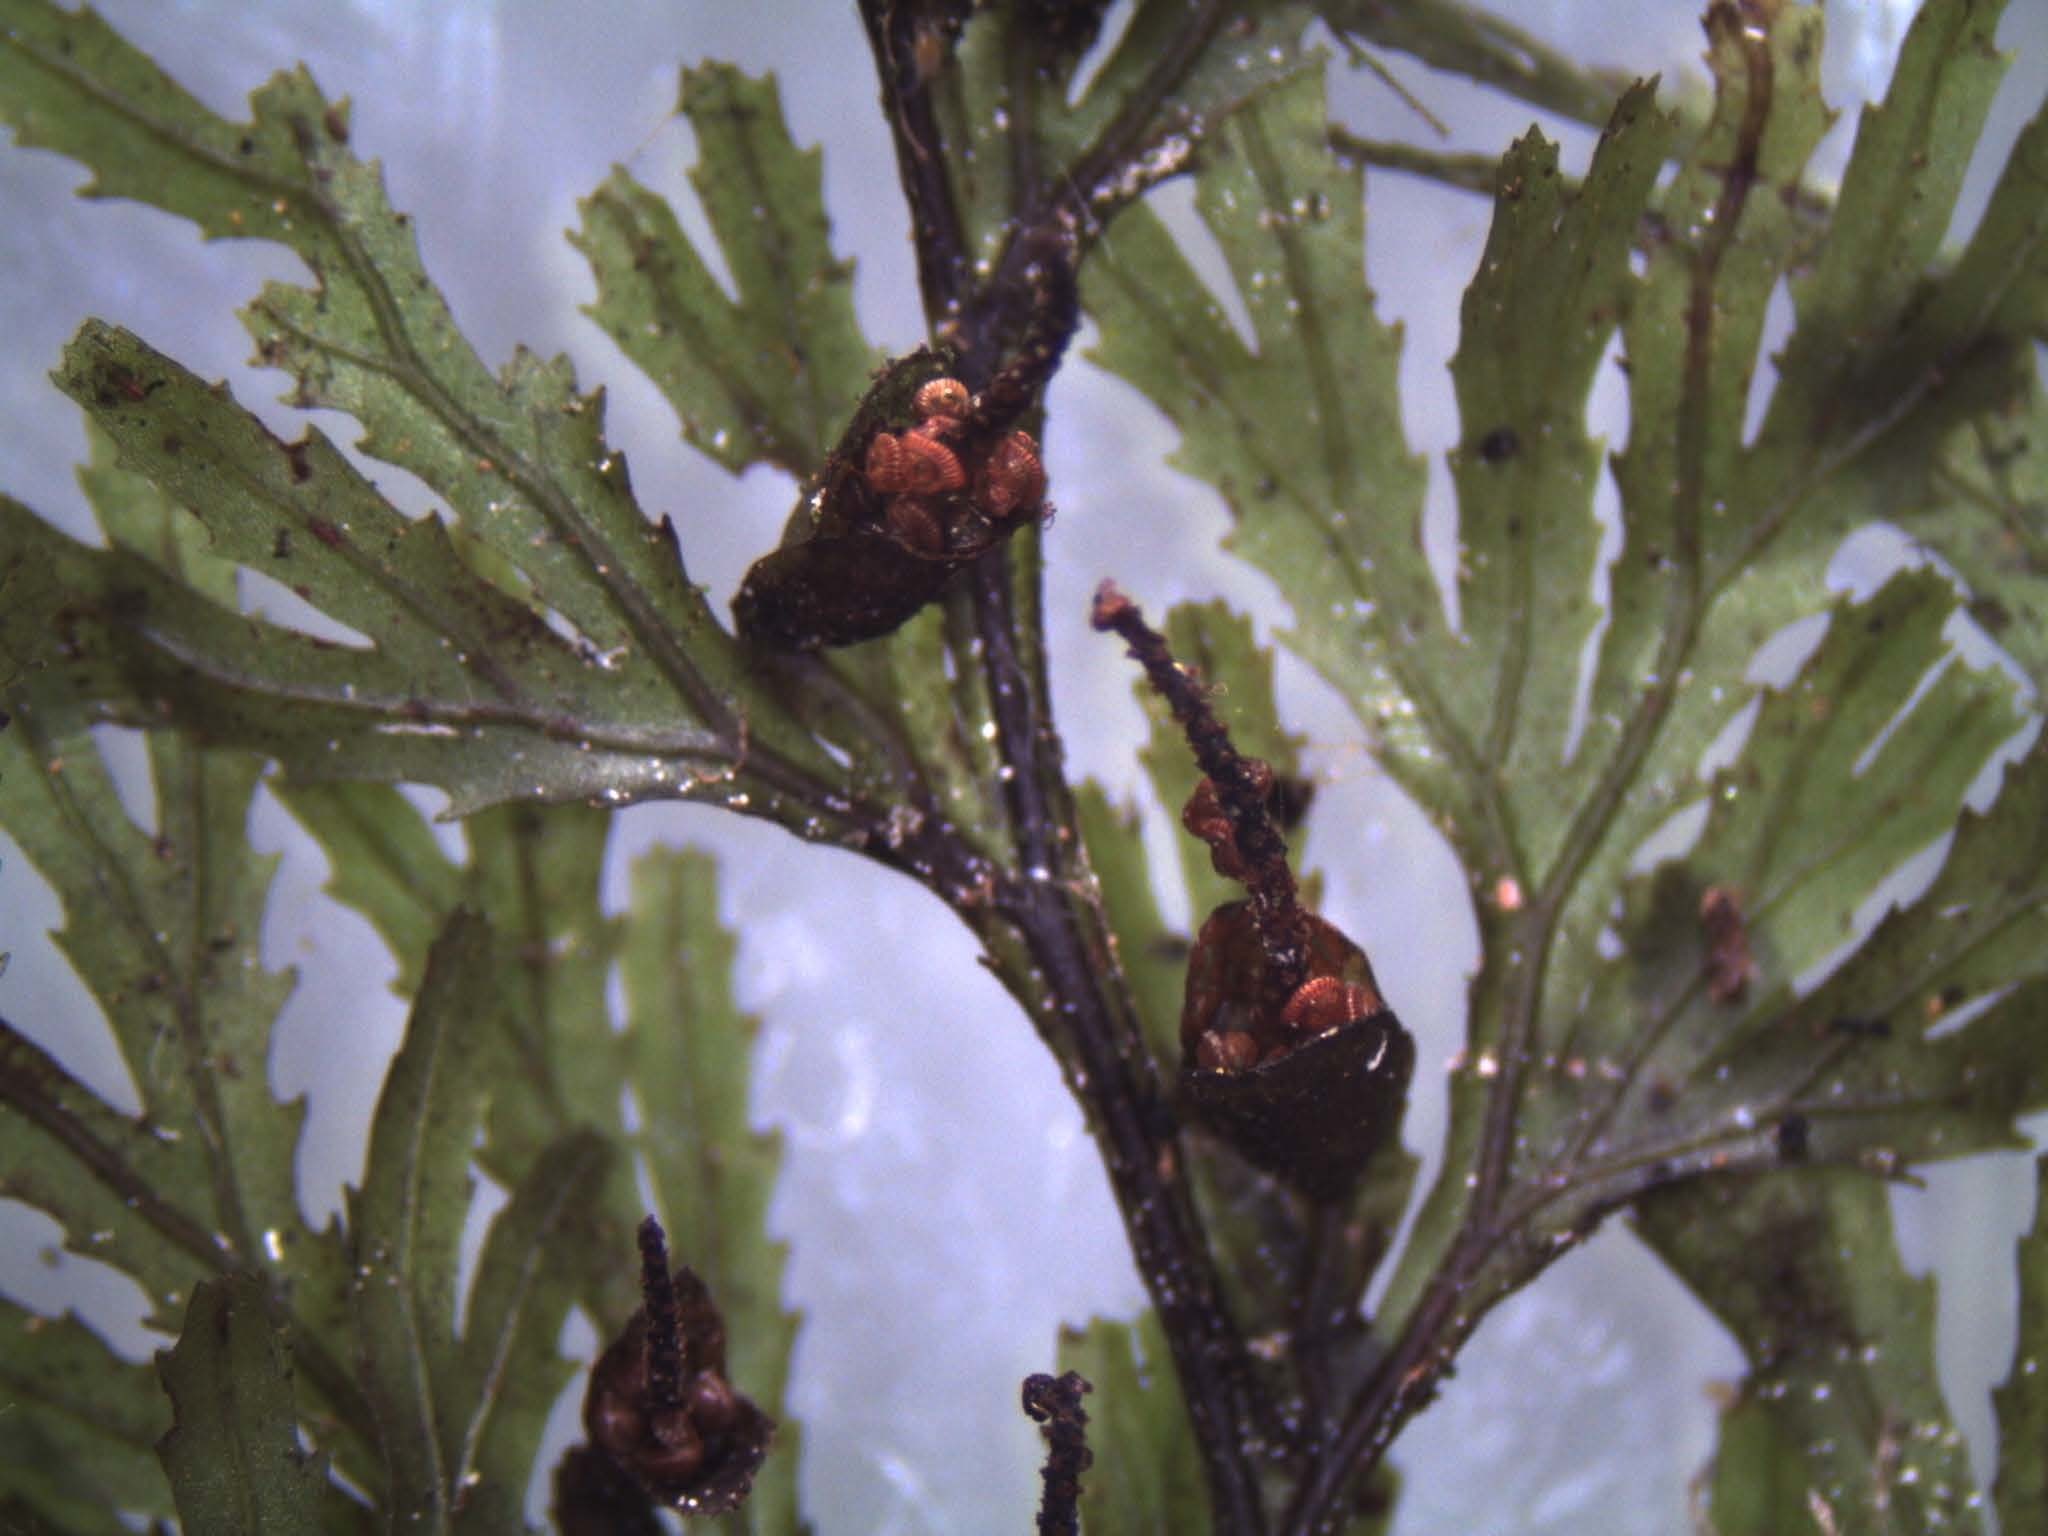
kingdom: Plantae
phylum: Tracheophyta
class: Polypodiopsida
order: Hymenophyllales
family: Hymenophyllaceae
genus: Hymenophyllum
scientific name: Hymenophyllum multifidum
